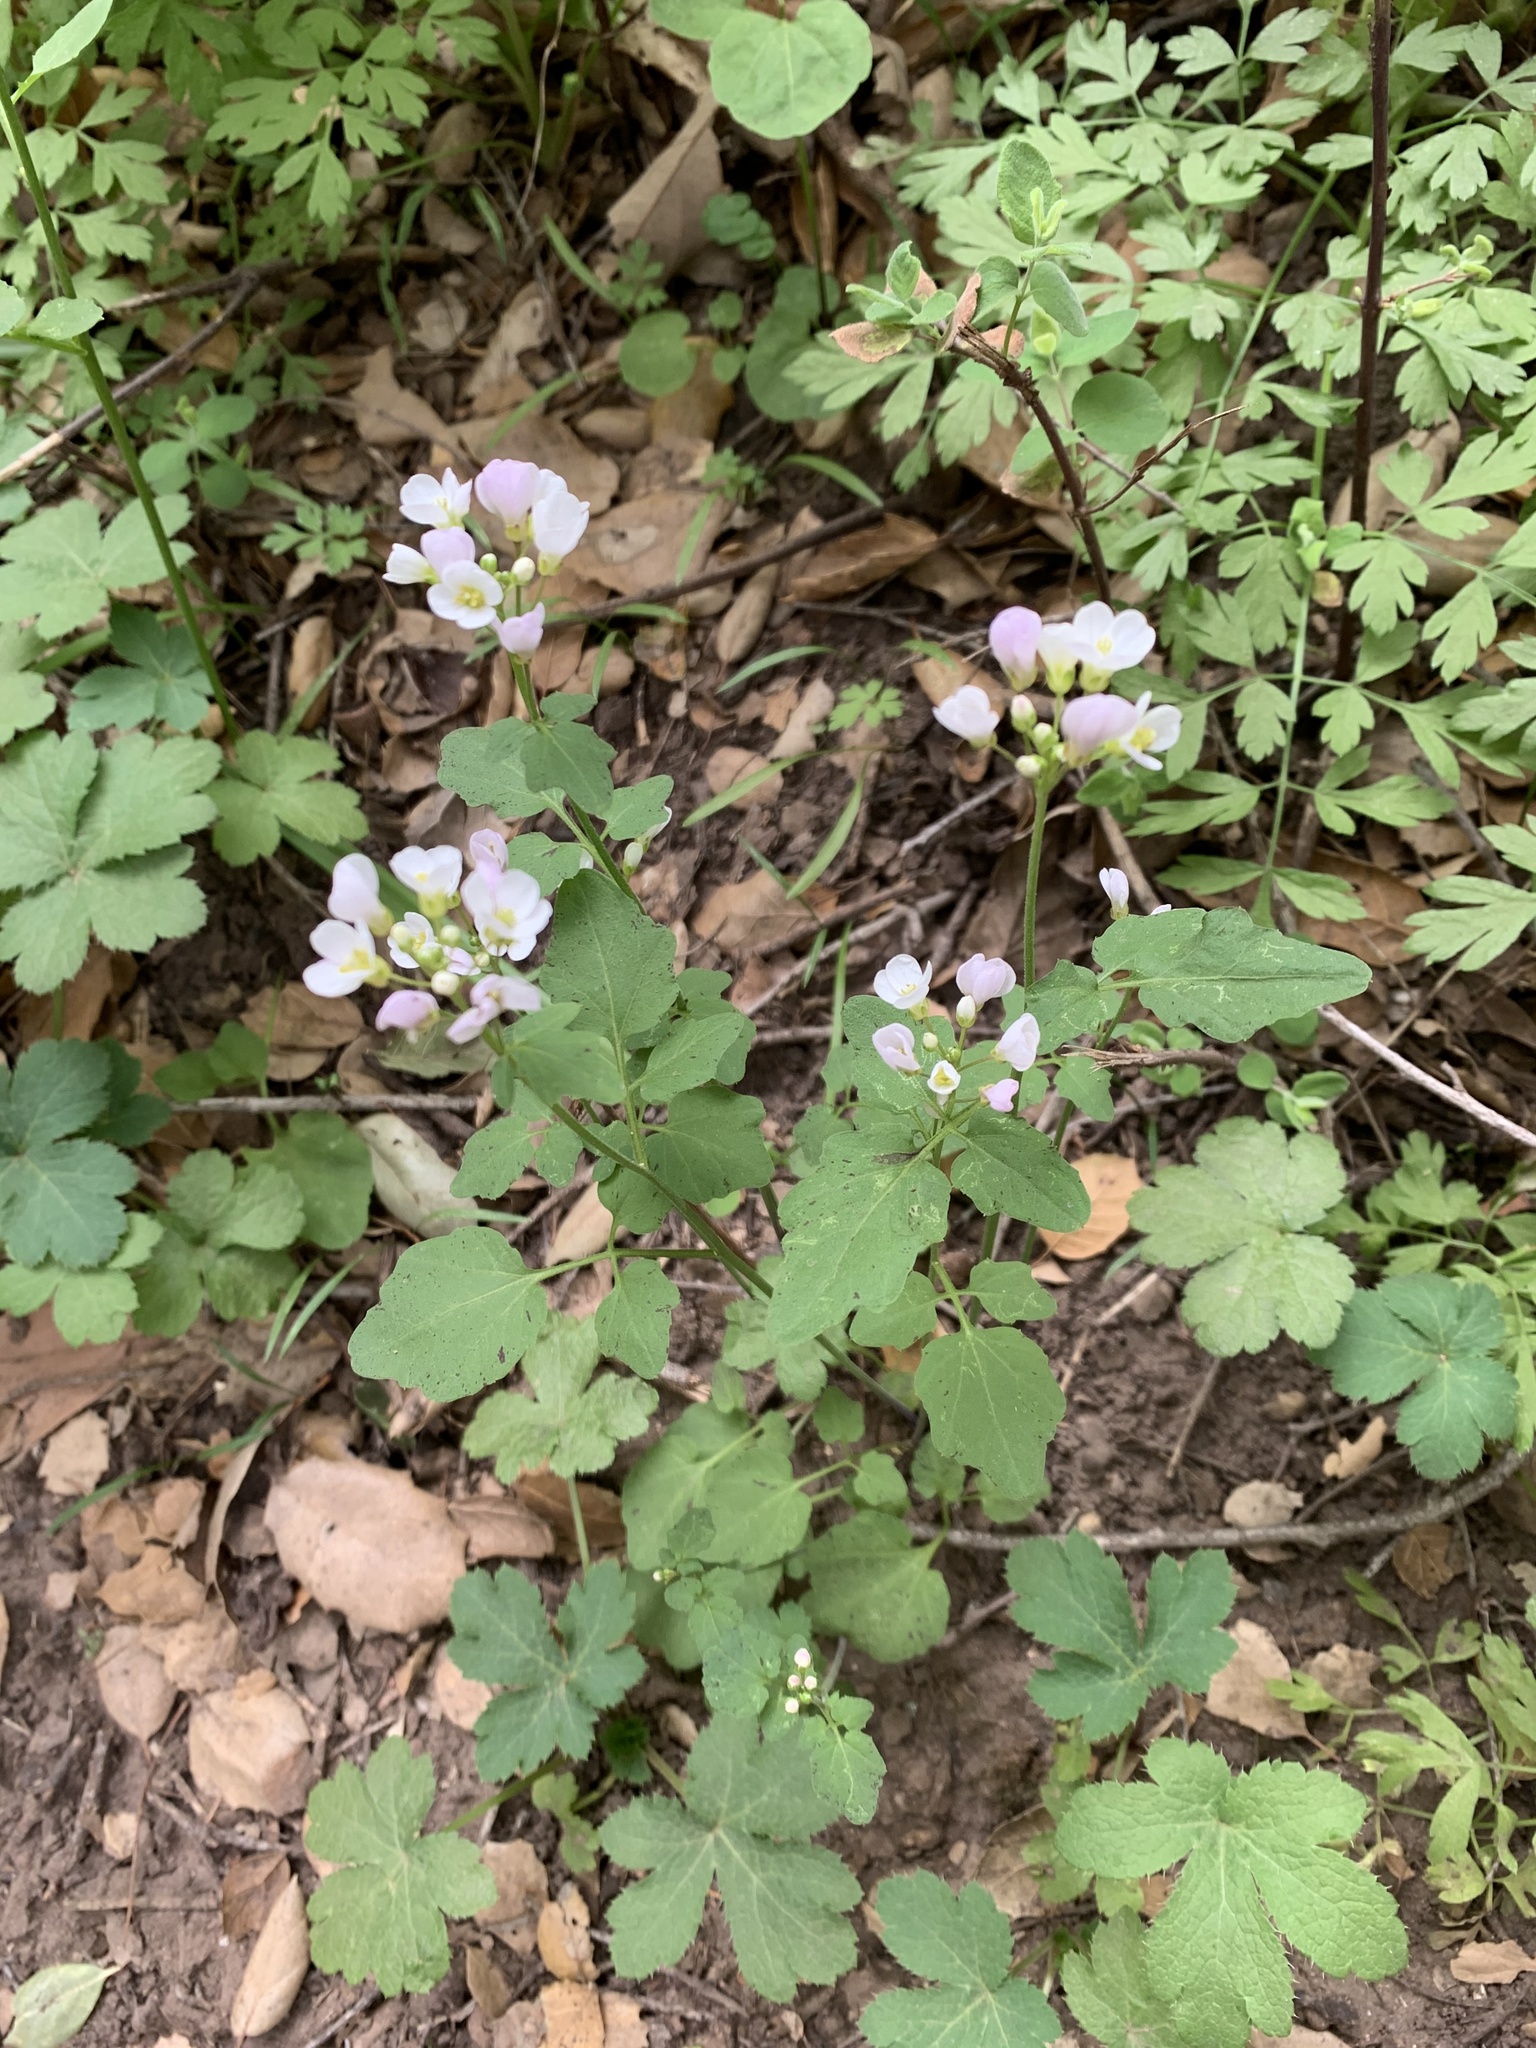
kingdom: Plantae
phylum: Tracheophyta
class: Magnoliopsida
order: Brassicales
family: Brassicaceae
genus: Cardamine
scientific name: Cardamine californica
